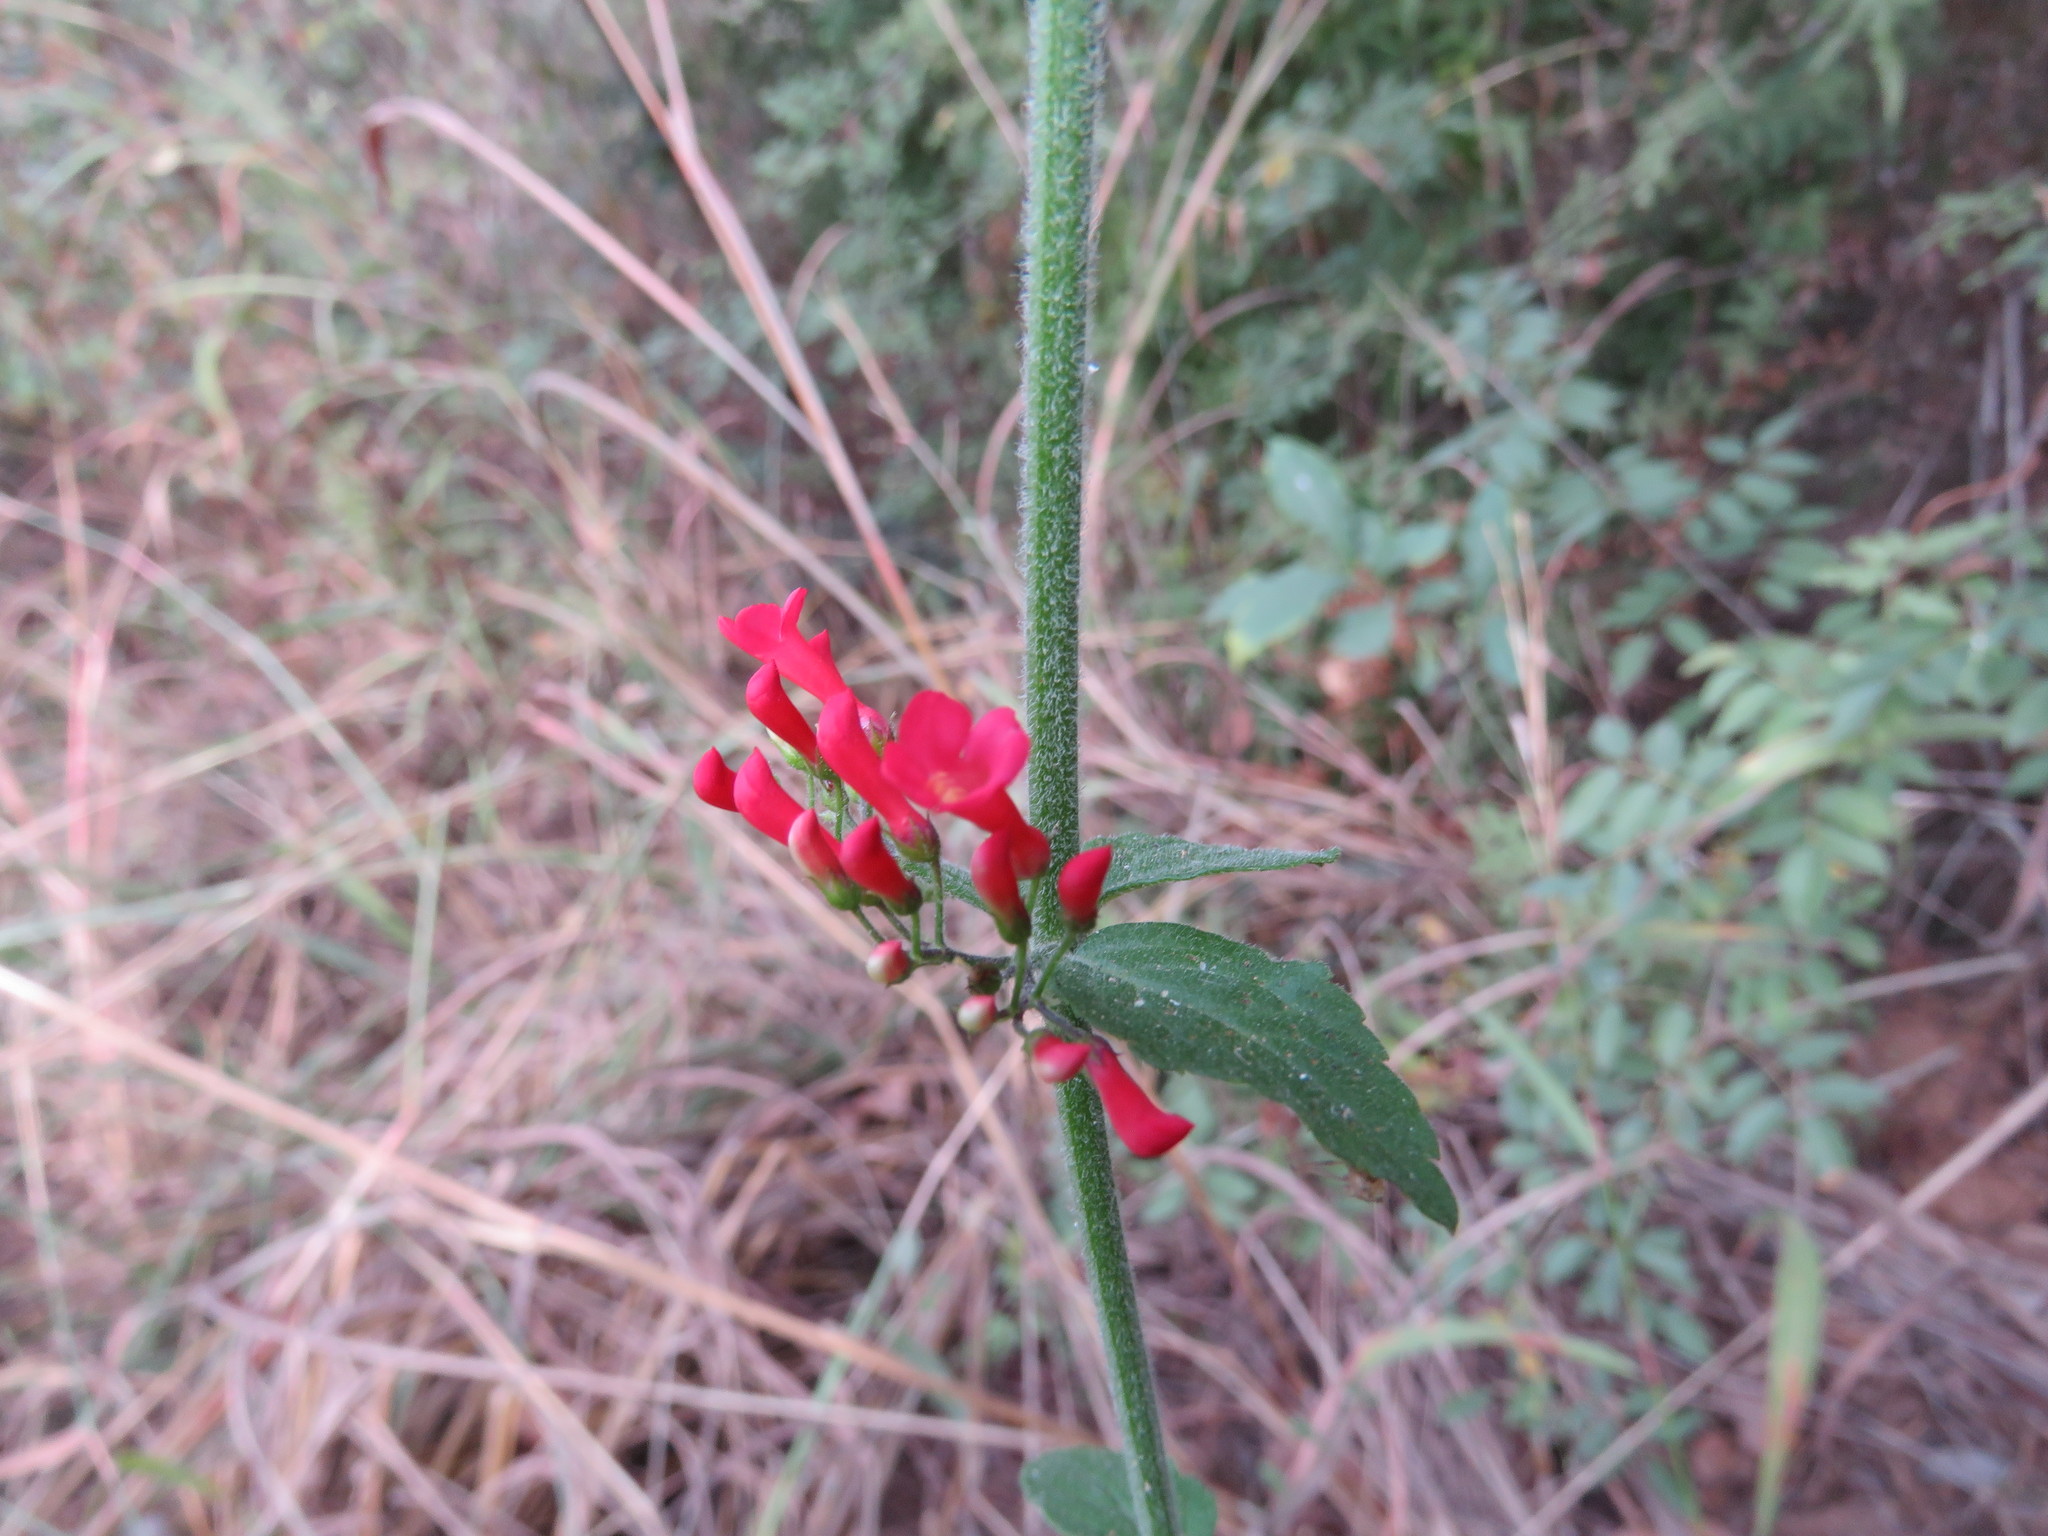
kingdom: Plantae
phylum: Tracheophyta
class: Magnoliopsida
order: Lamiales
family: Plantaginaceae
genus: Russelia
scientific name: Russelia tetraptera
